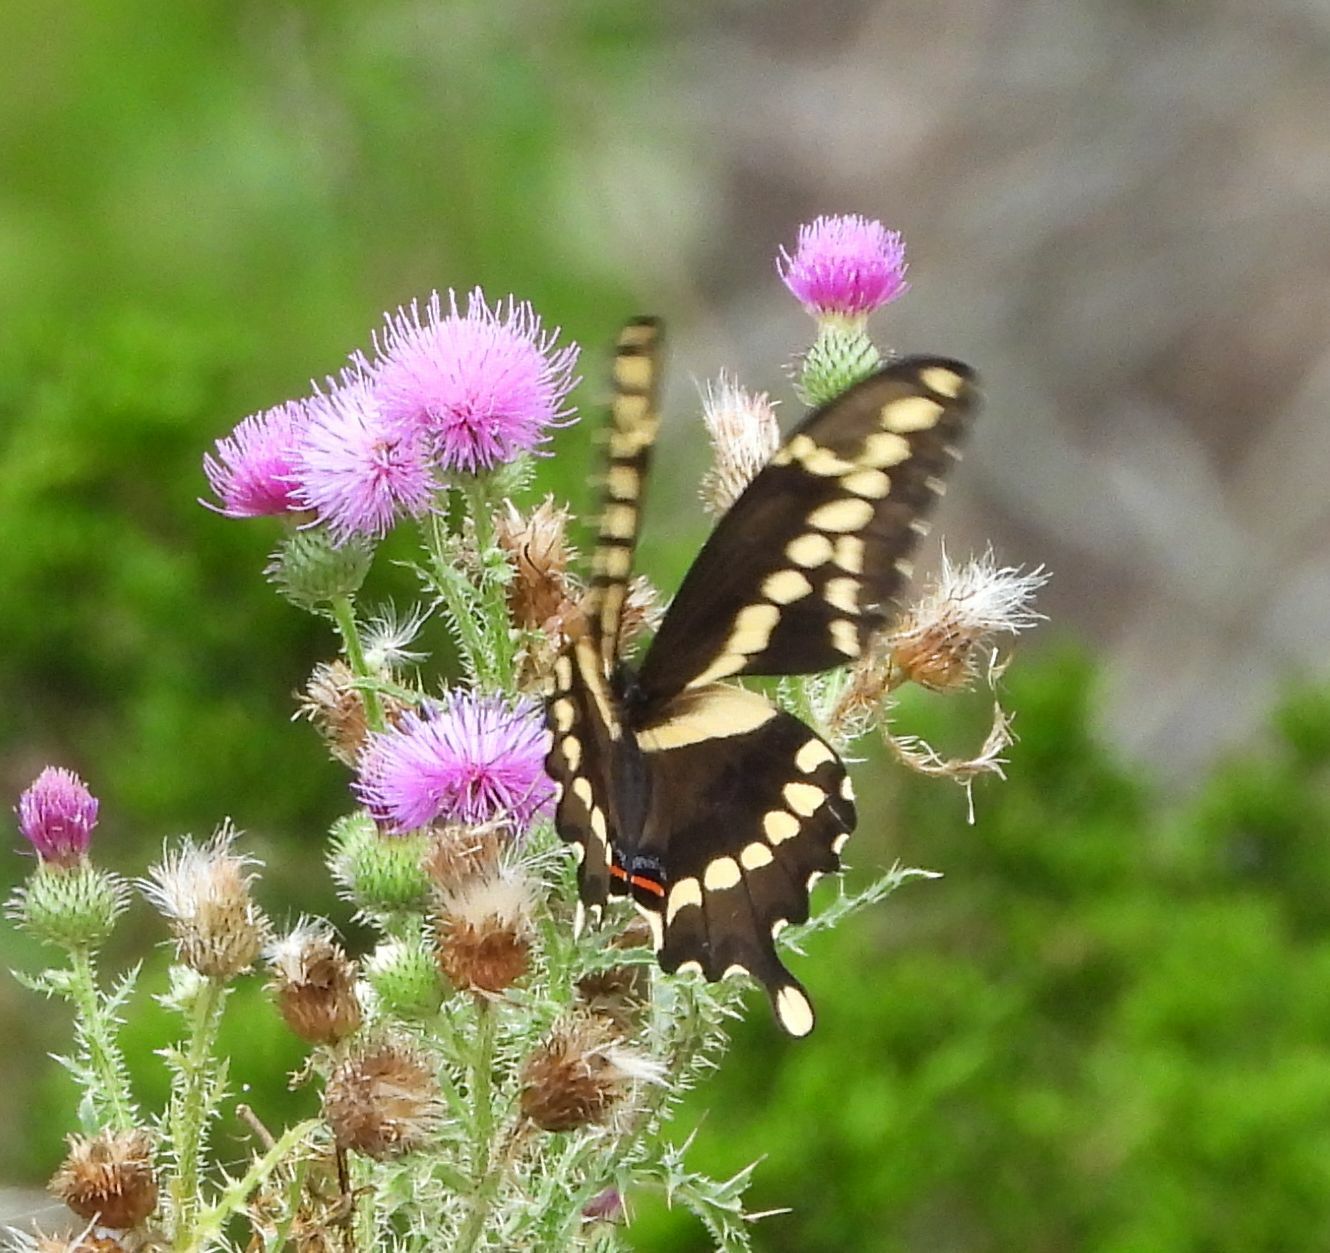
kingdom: Animalia
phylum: Arthropoda
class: Insecta
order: Lepidoptera
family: Papilionidae
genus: Papilio
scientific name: Papilio cresphontes
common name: Giant swallowtail
